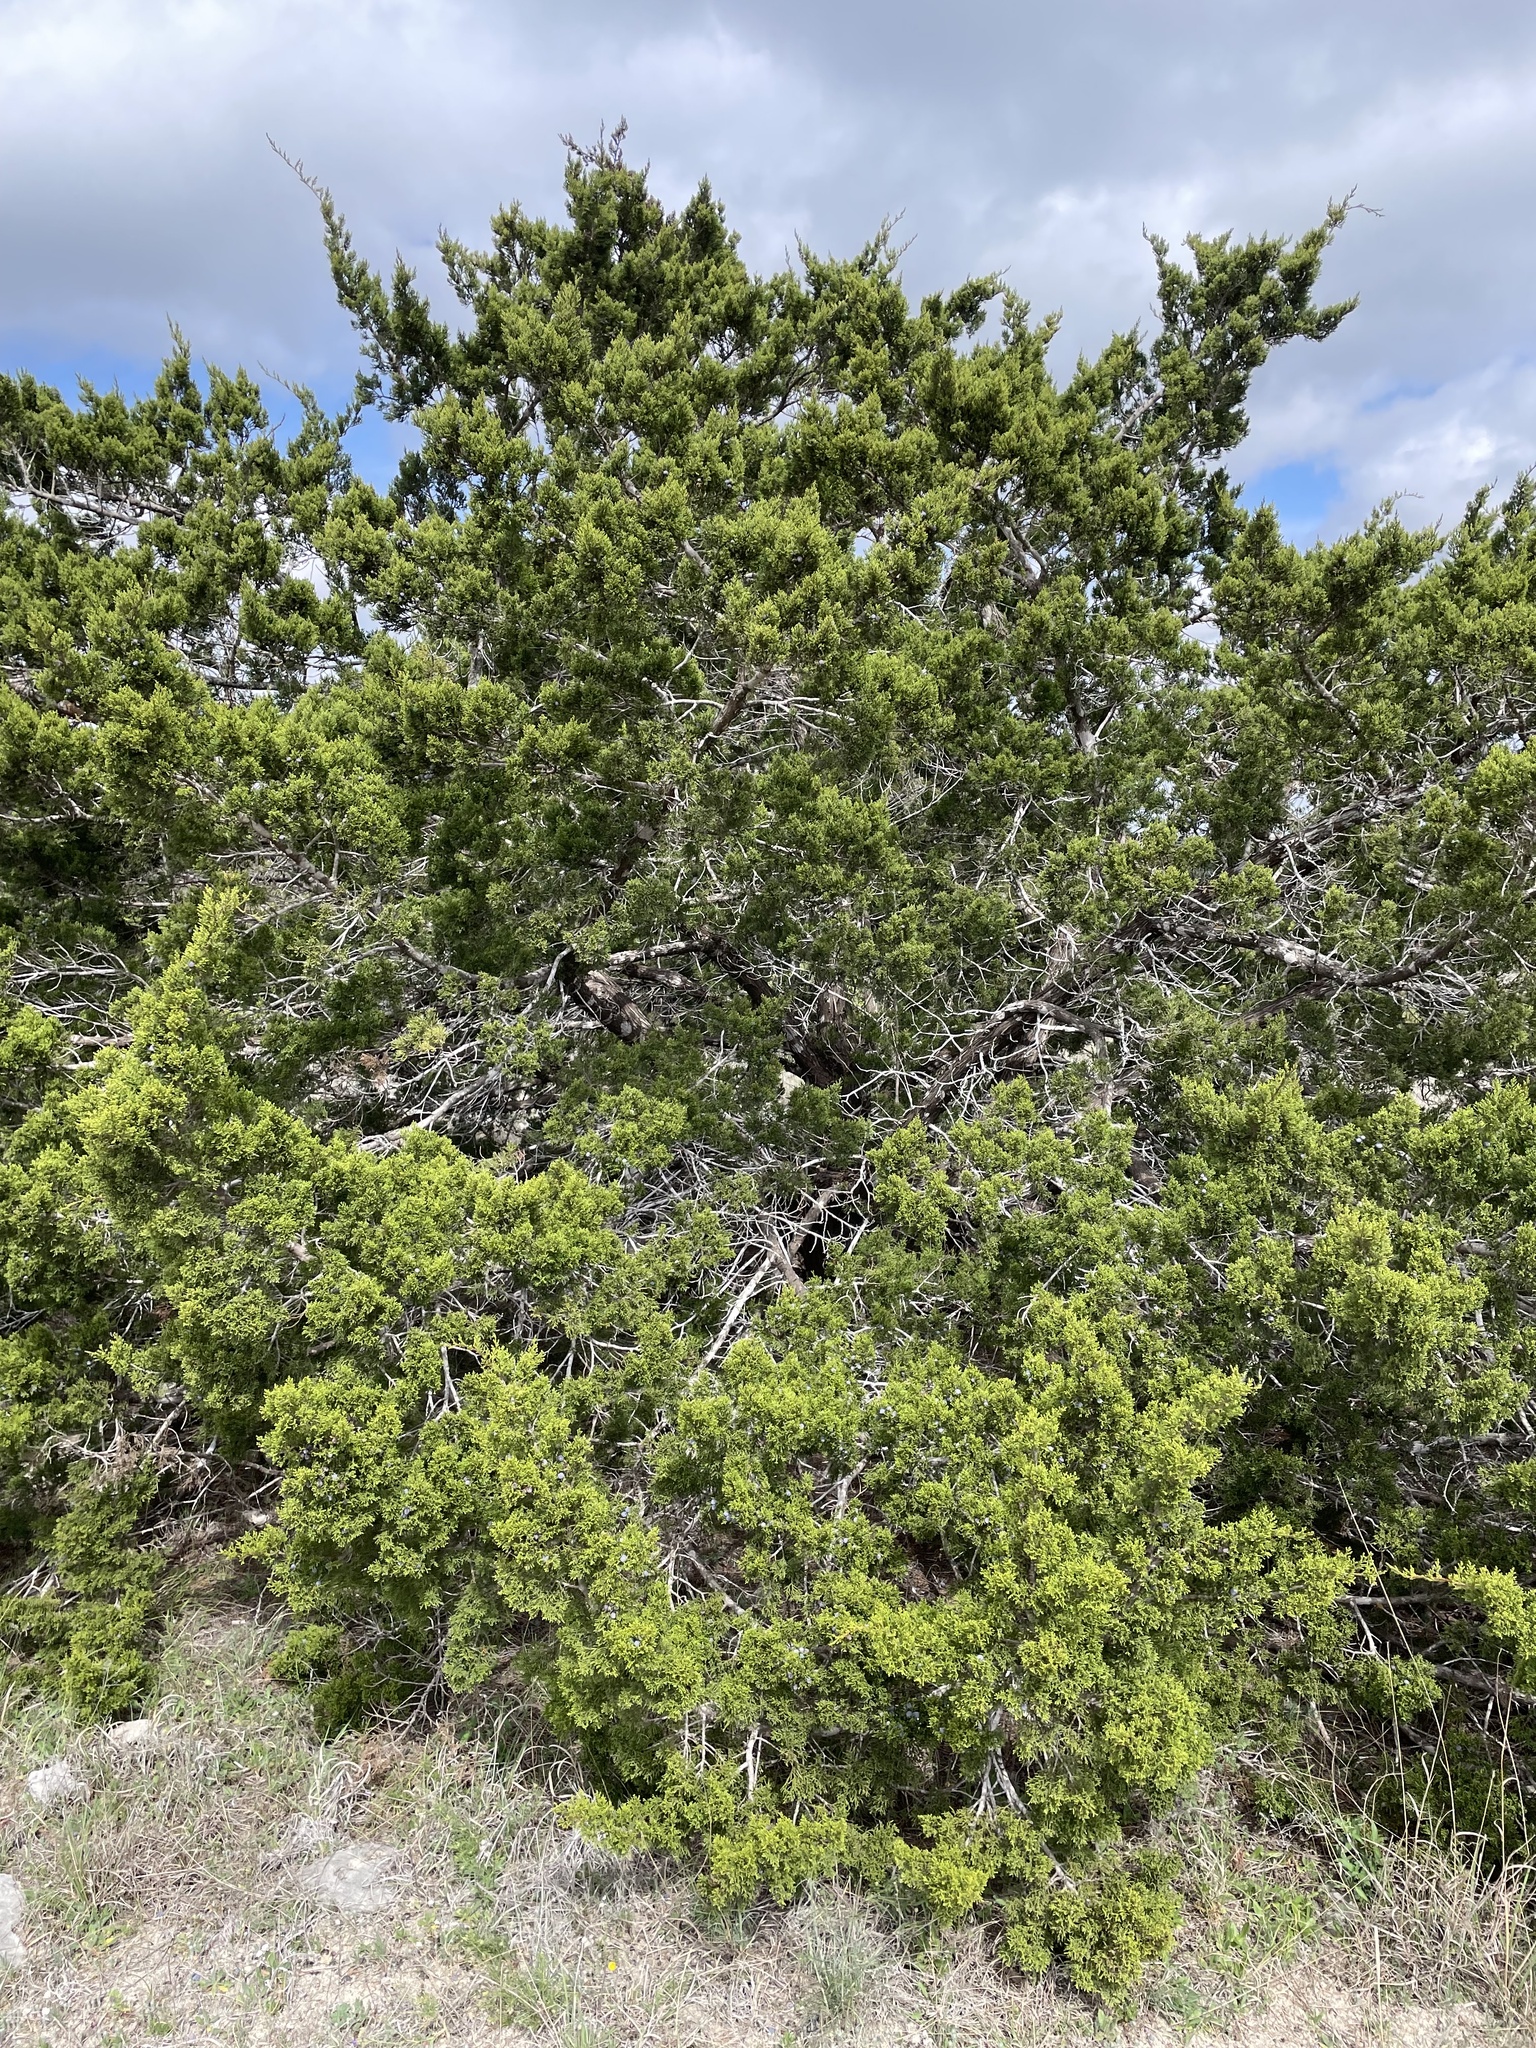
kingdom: Plantae
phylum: Tracheophyta
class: Pinopsida
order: Pinales
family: Cupressaceae
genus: Juniperus
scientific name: Juniperus ashei
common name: Mexican juniper
